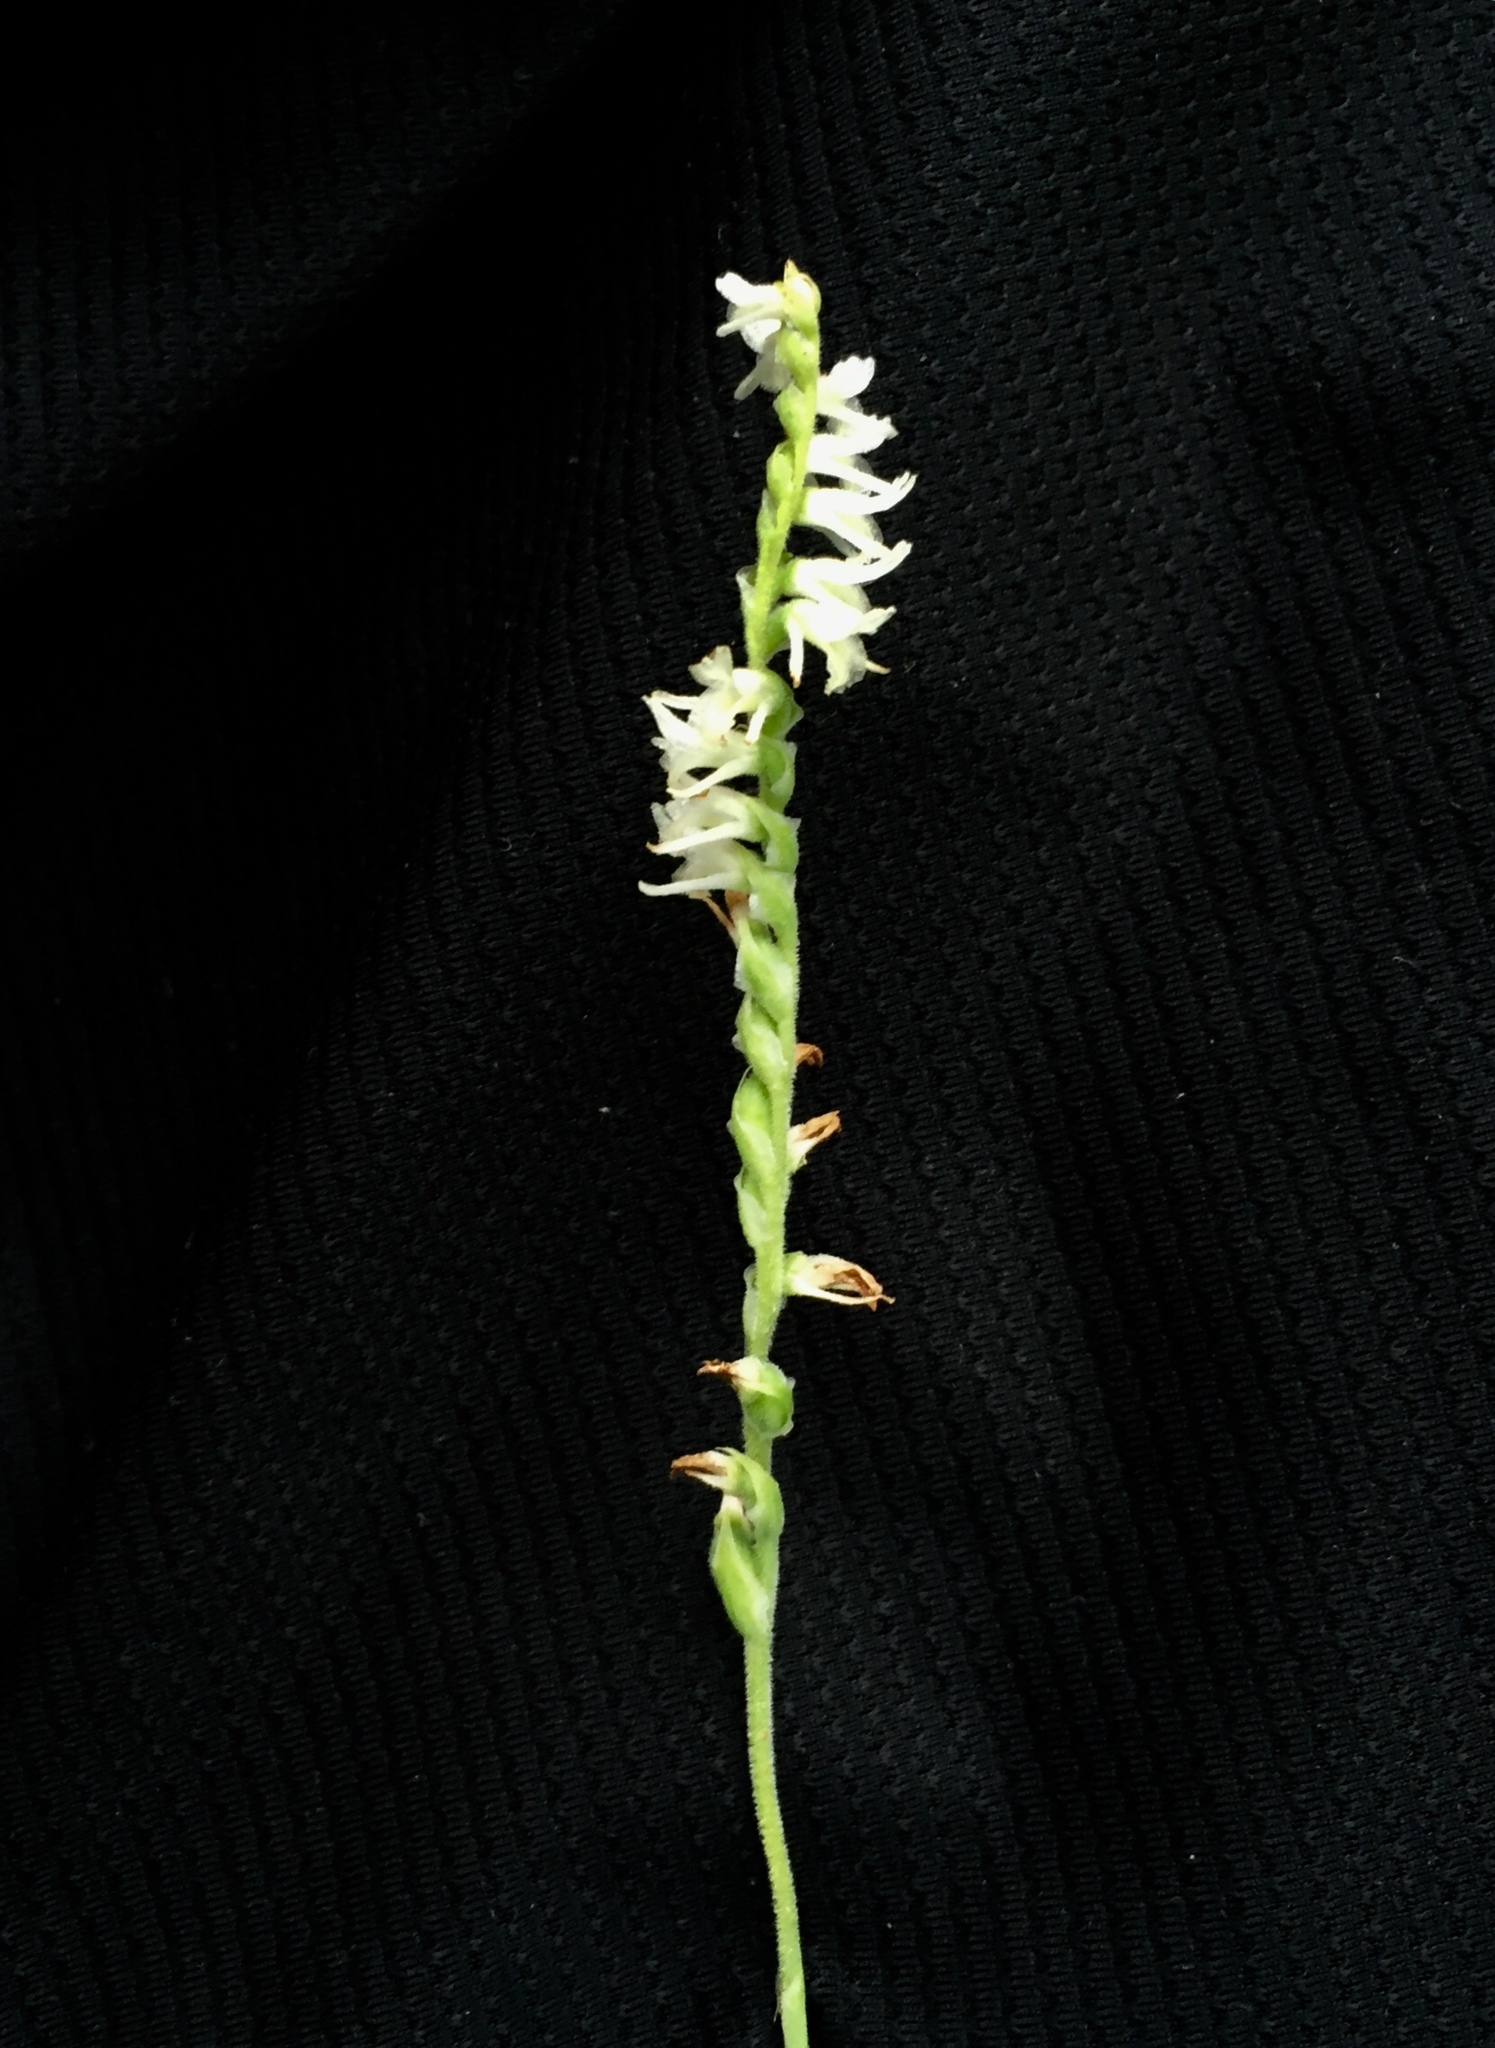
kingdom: Plantae
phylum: Tracheophyta
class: Liliopsida
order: Asparagales
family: Orchidaceae
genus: Spiranthes
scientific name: Spiranthes vernalis
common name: Spring ladies'-tresses
